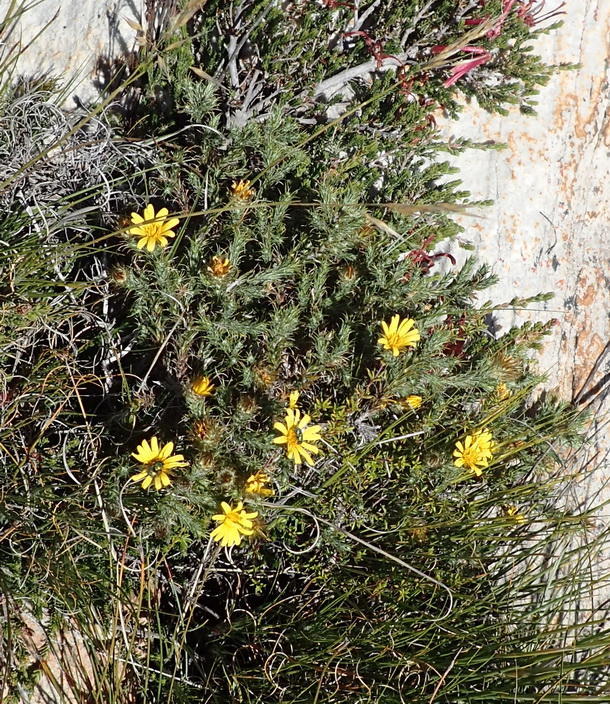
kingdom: Plantae
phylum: Tracheophyta
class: Magnoliopsida
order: Asterales
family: Asteraceae
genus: Cullumia
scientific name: Cullumia bisulca
